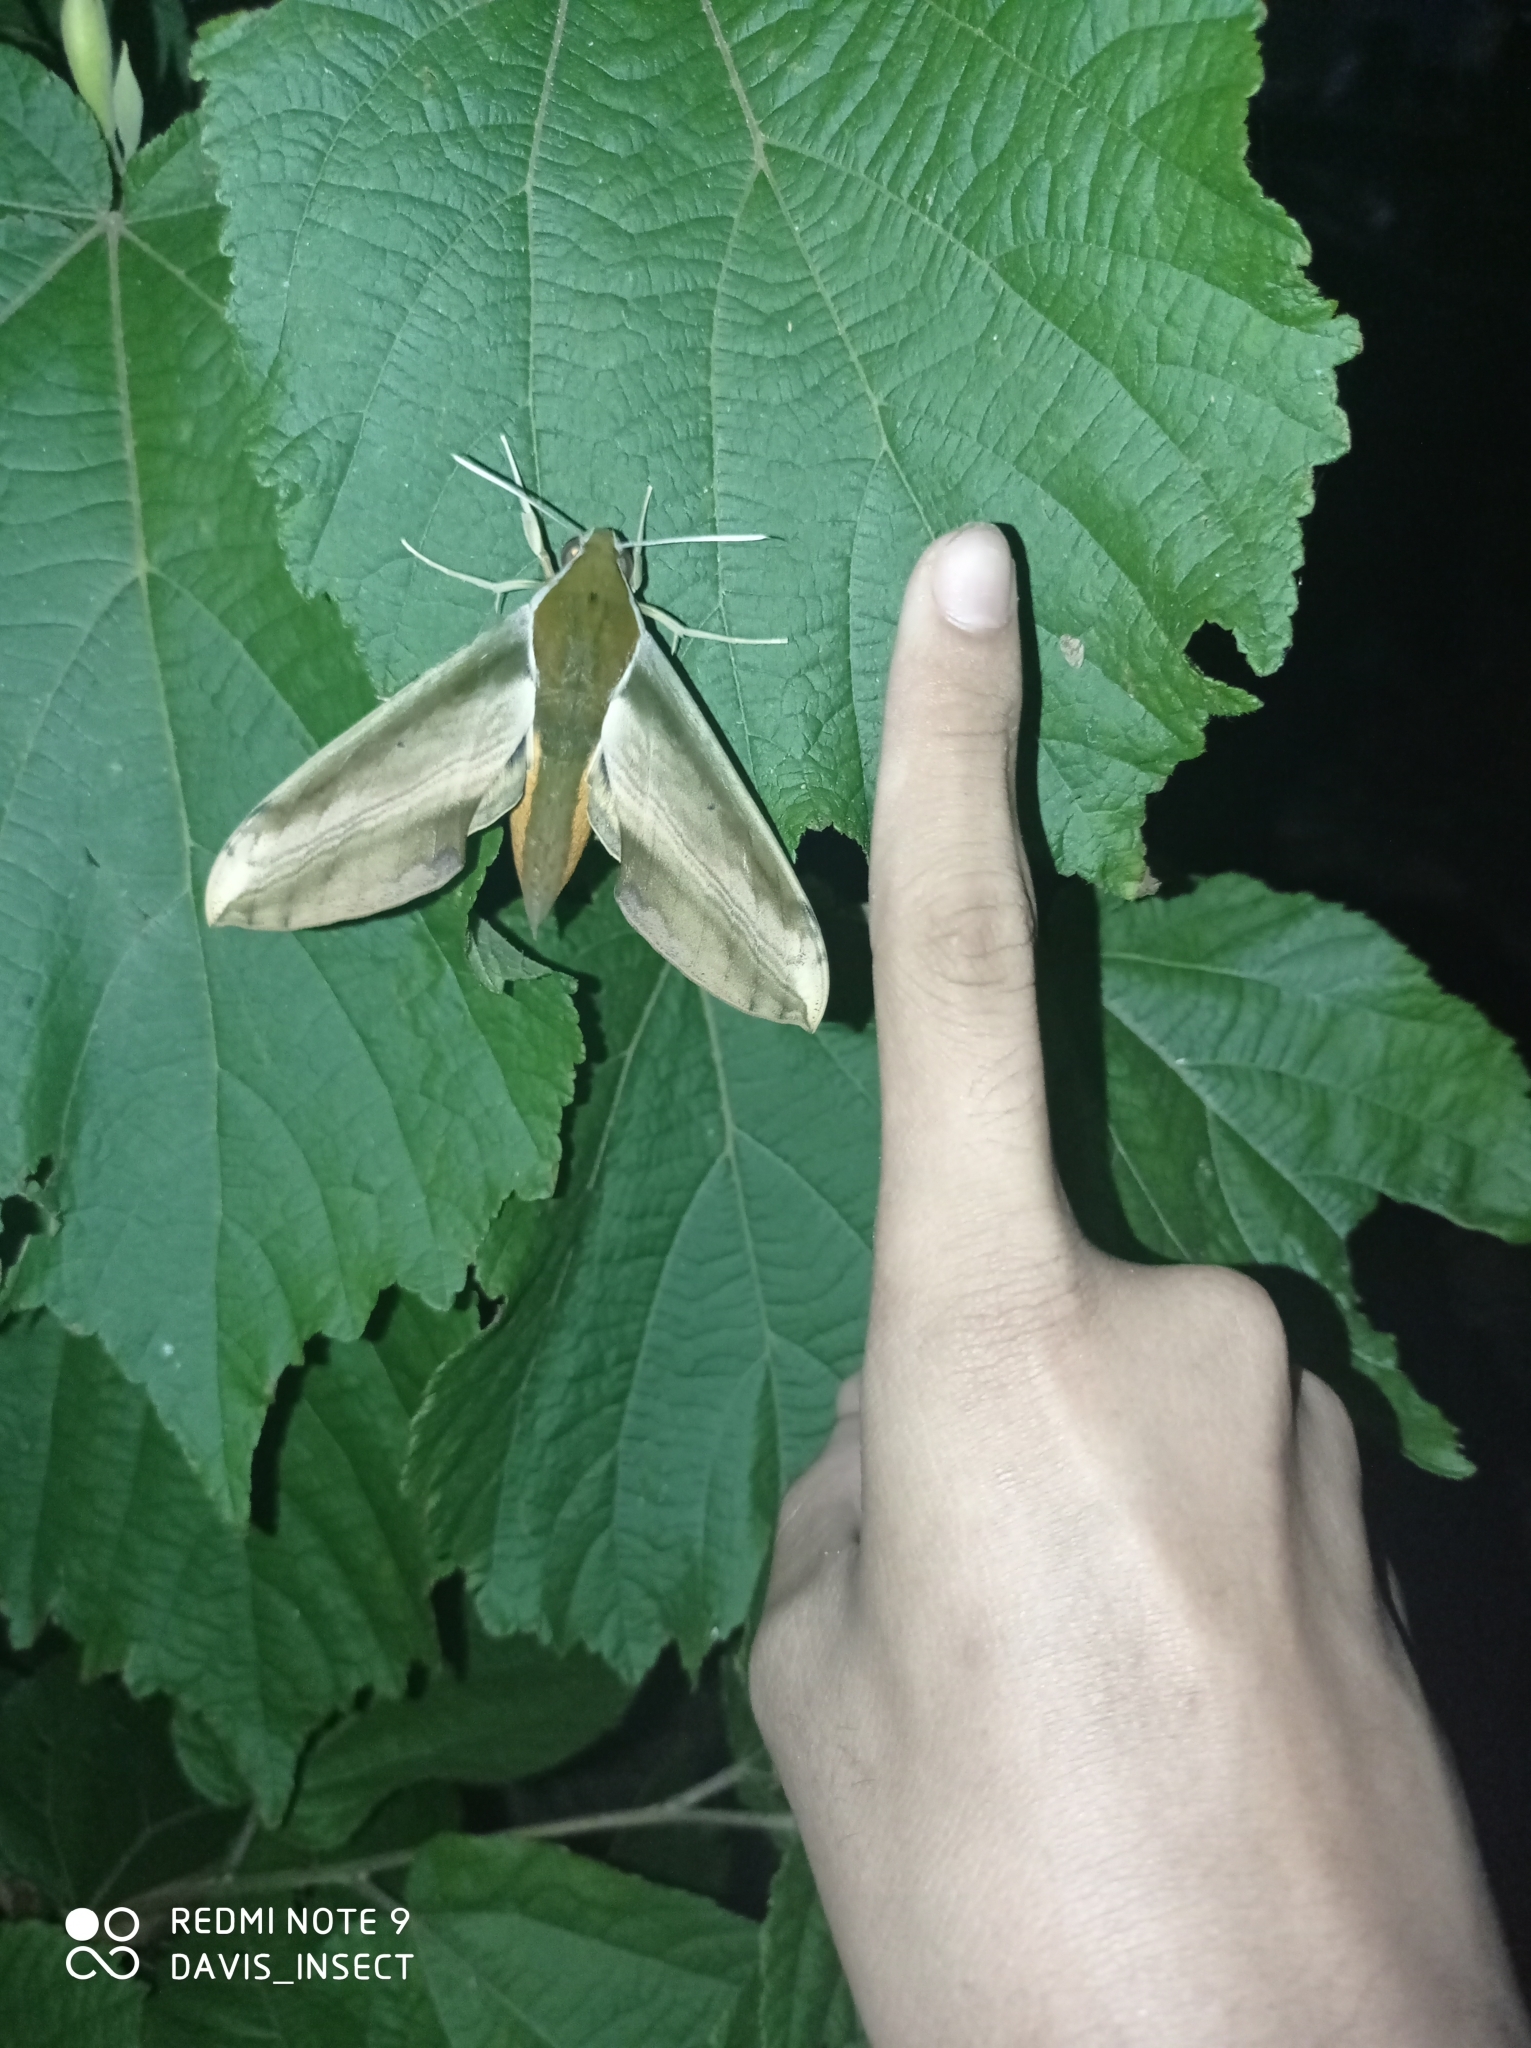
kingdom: Animalia
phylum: Arthropoda
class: Insecta
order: Lepidoptera
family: Sphingidae
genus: Theretra
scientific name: Theretra nessus
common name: Yam hawk moth
